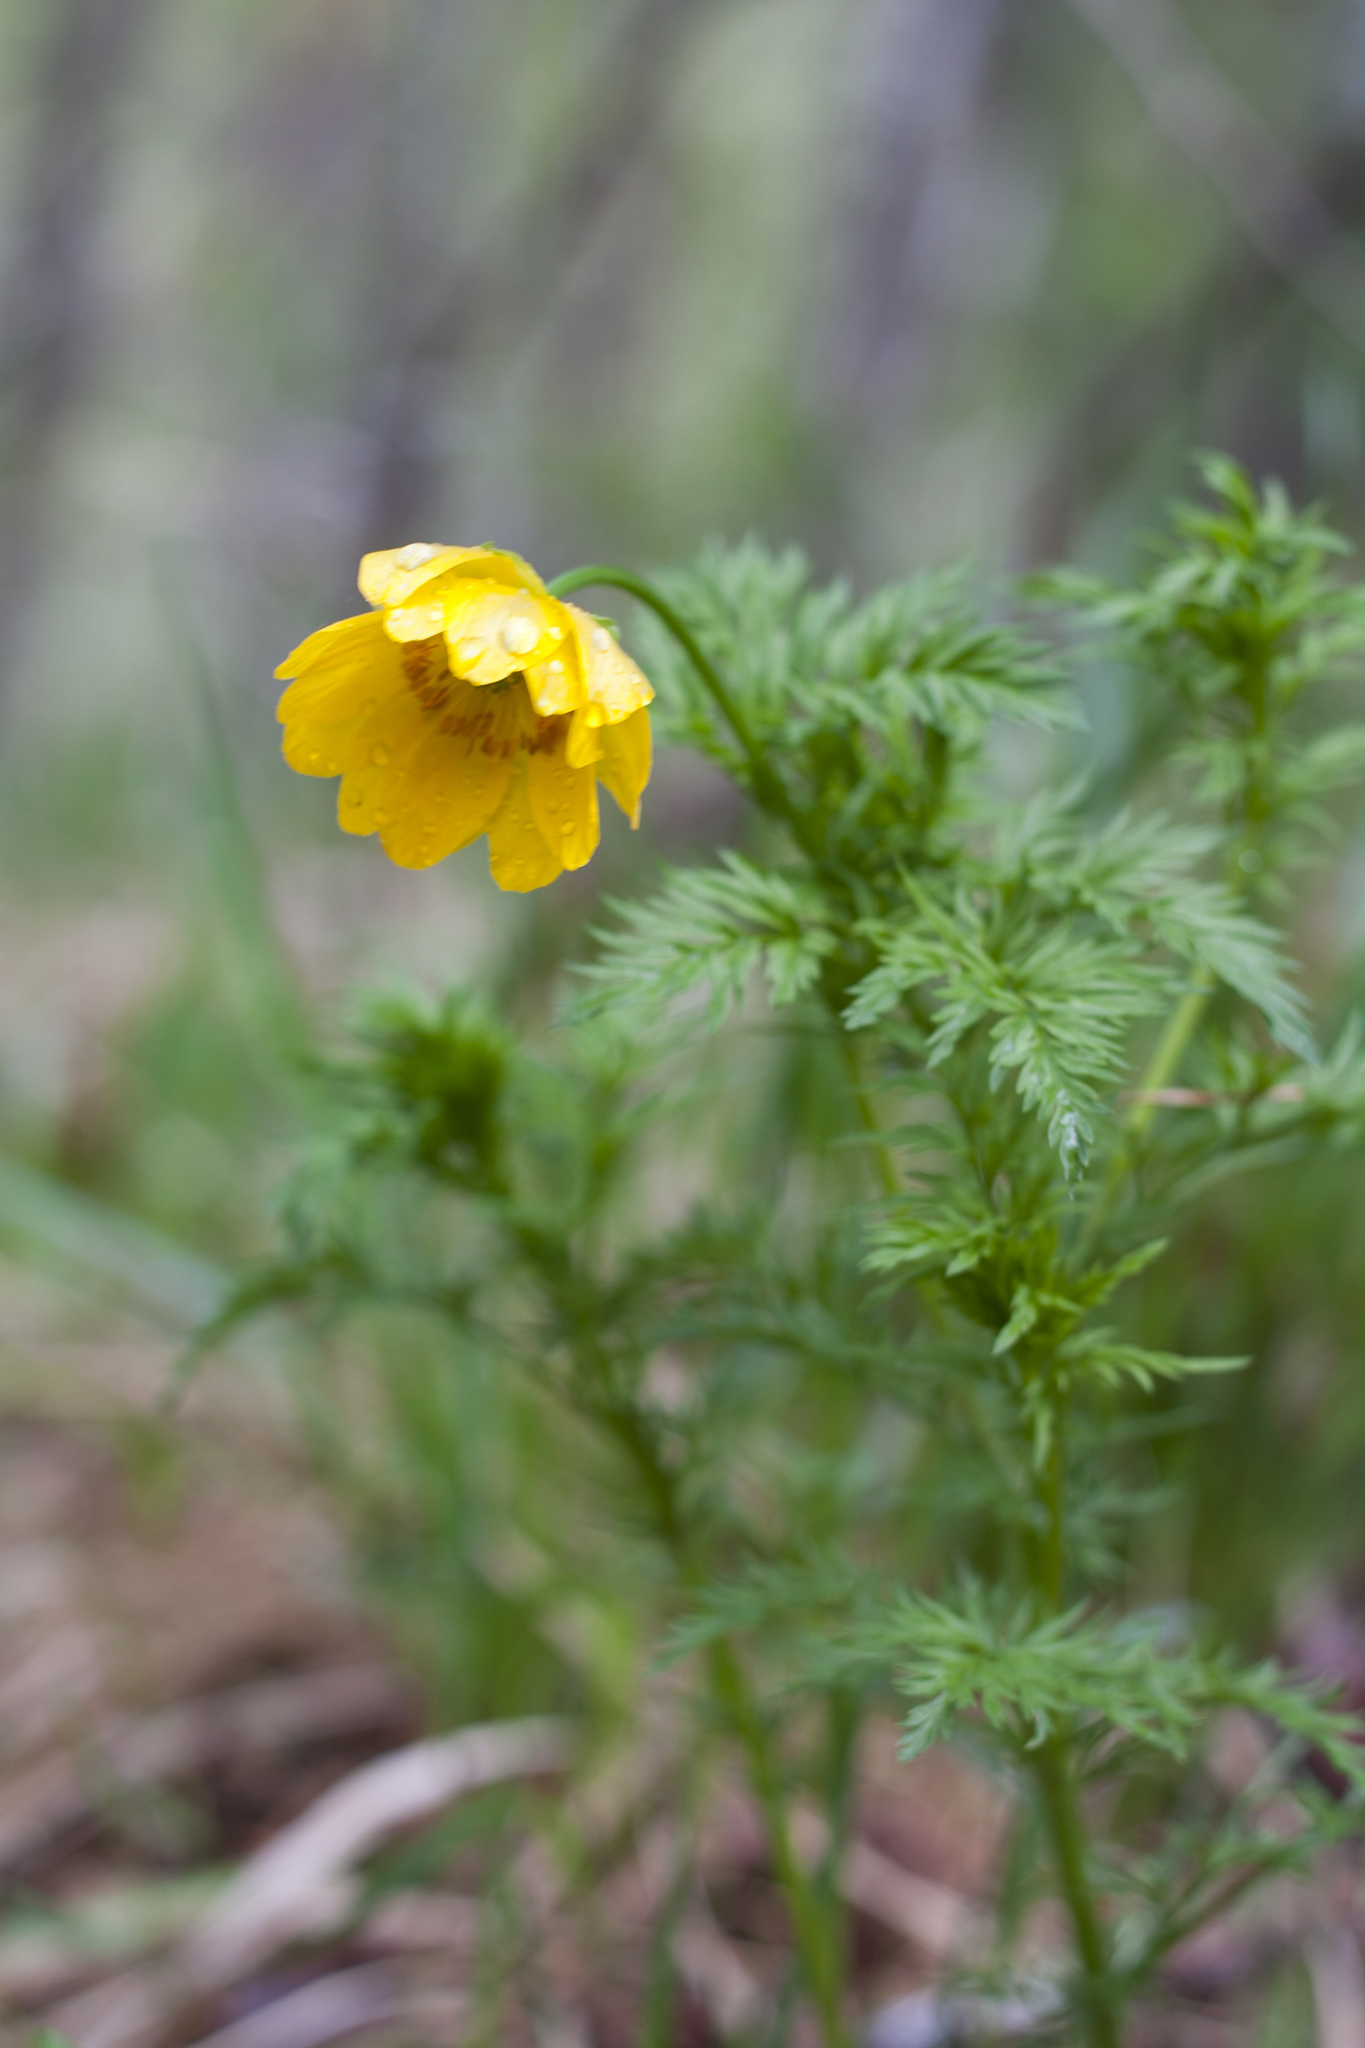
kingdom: Plantae
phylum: Tracheophyta
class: Magnoliopsida
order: Ranunculales
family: Ranunculaceae
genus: Adonis
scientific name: Adonis
